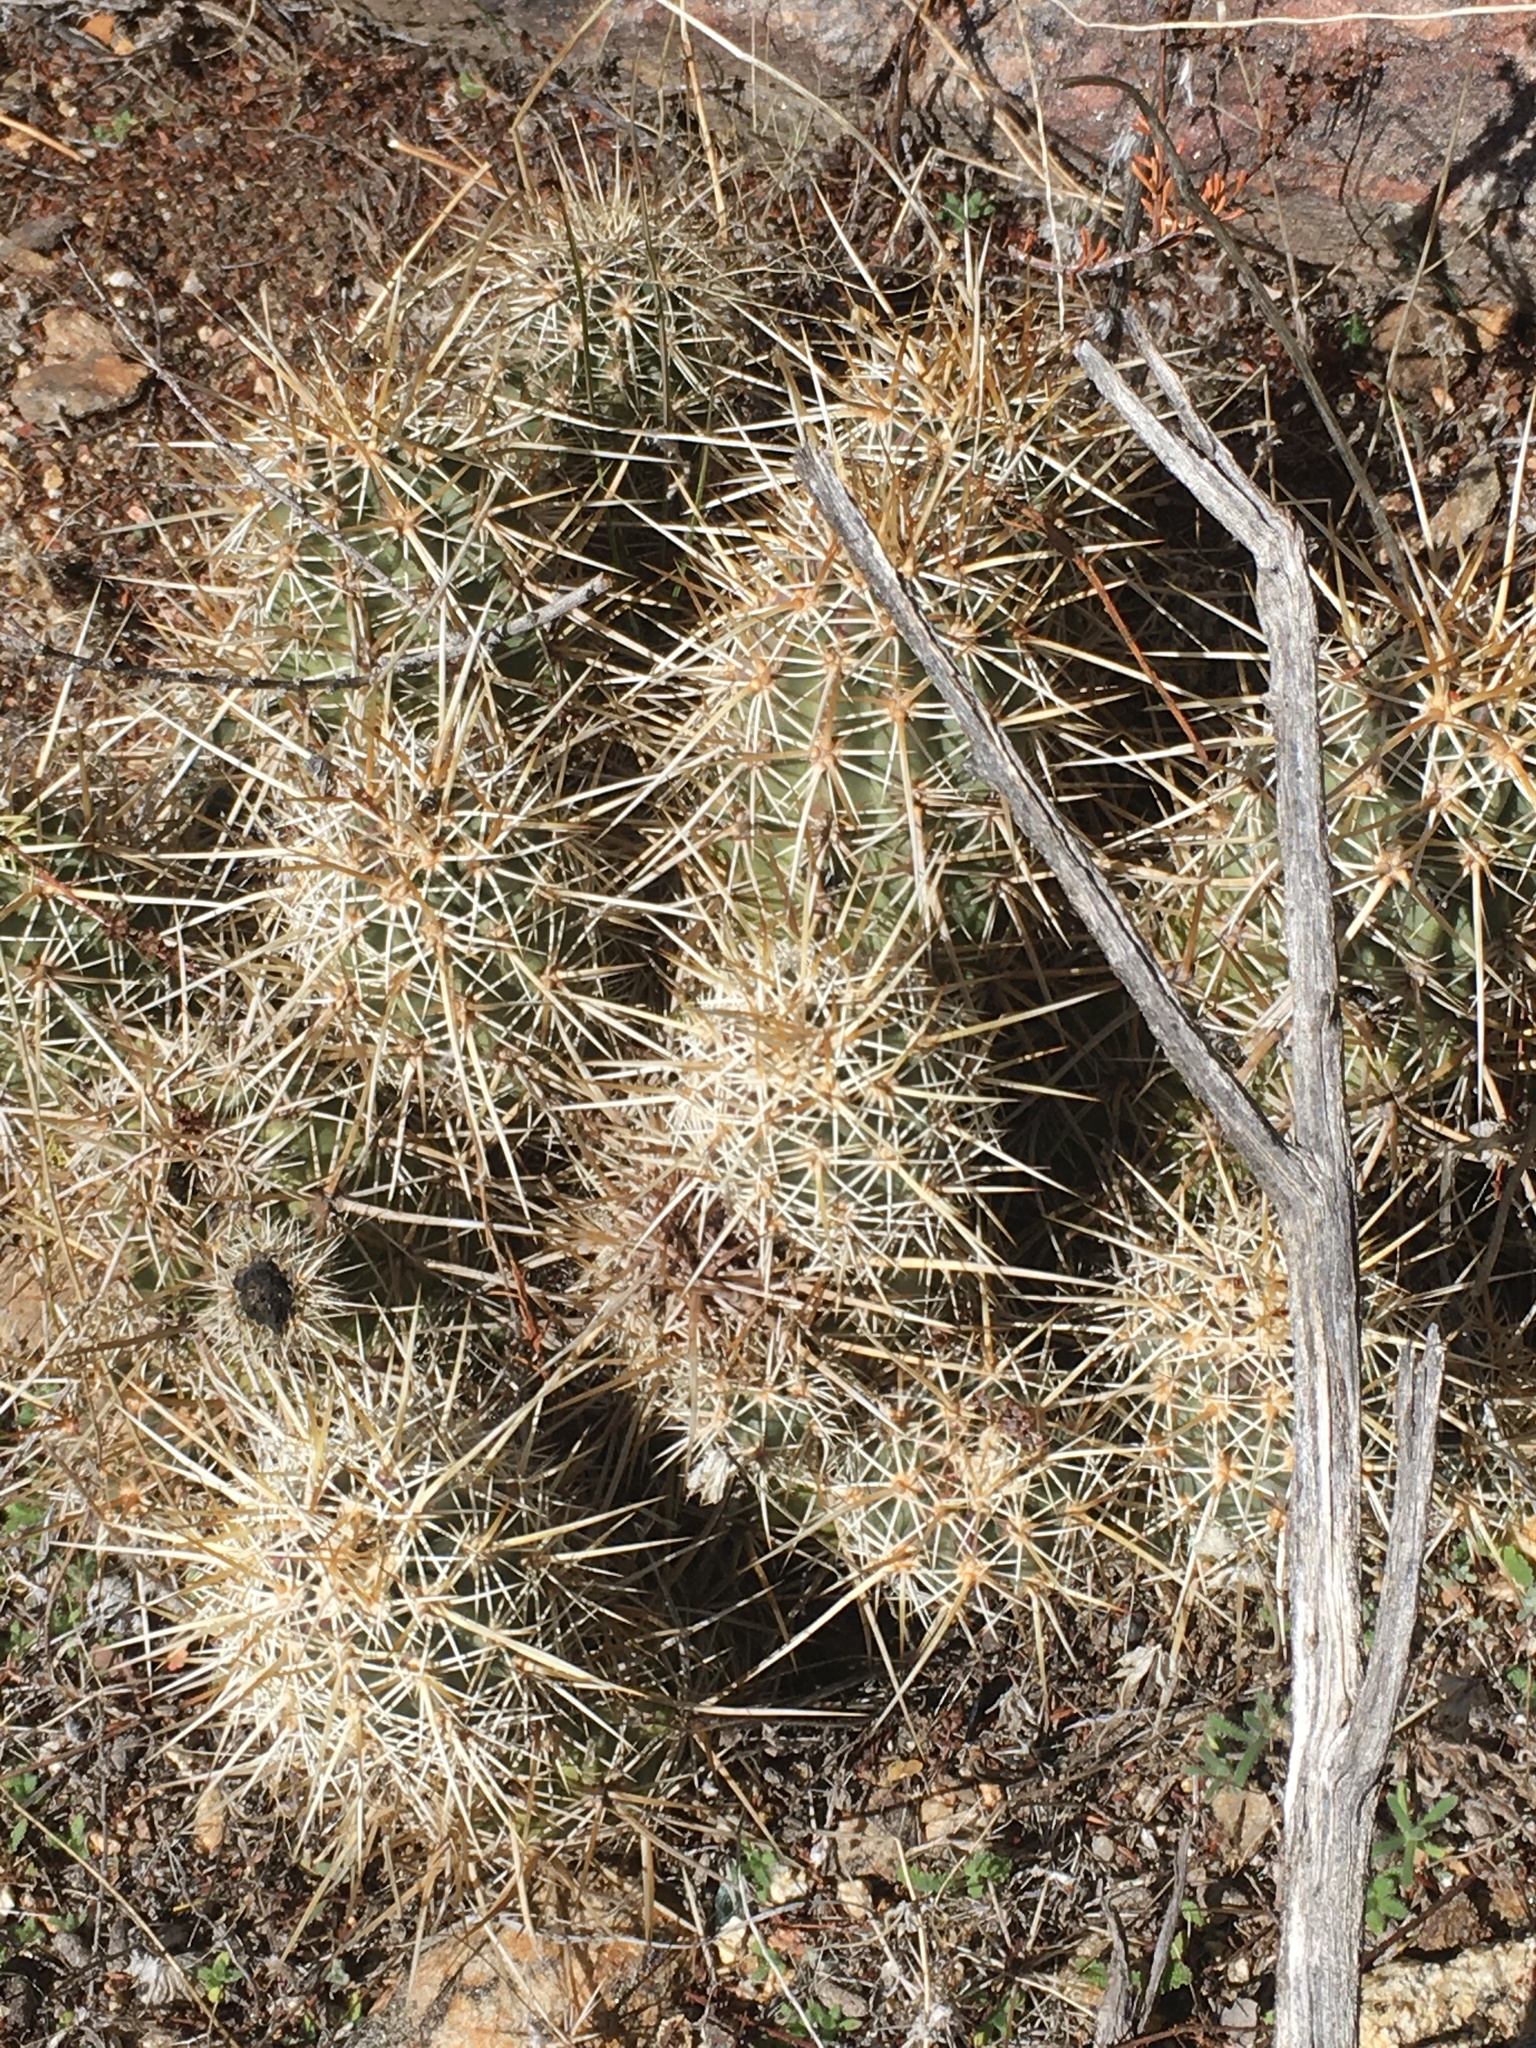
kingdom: Plantae
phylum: Tracheophyta
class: Magnoliopsida
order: Caryophyllales
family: Cactaceae
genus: Echinocereus
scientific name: Echinocereus engelmannii
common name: Engelmann's hedgehog cactus
